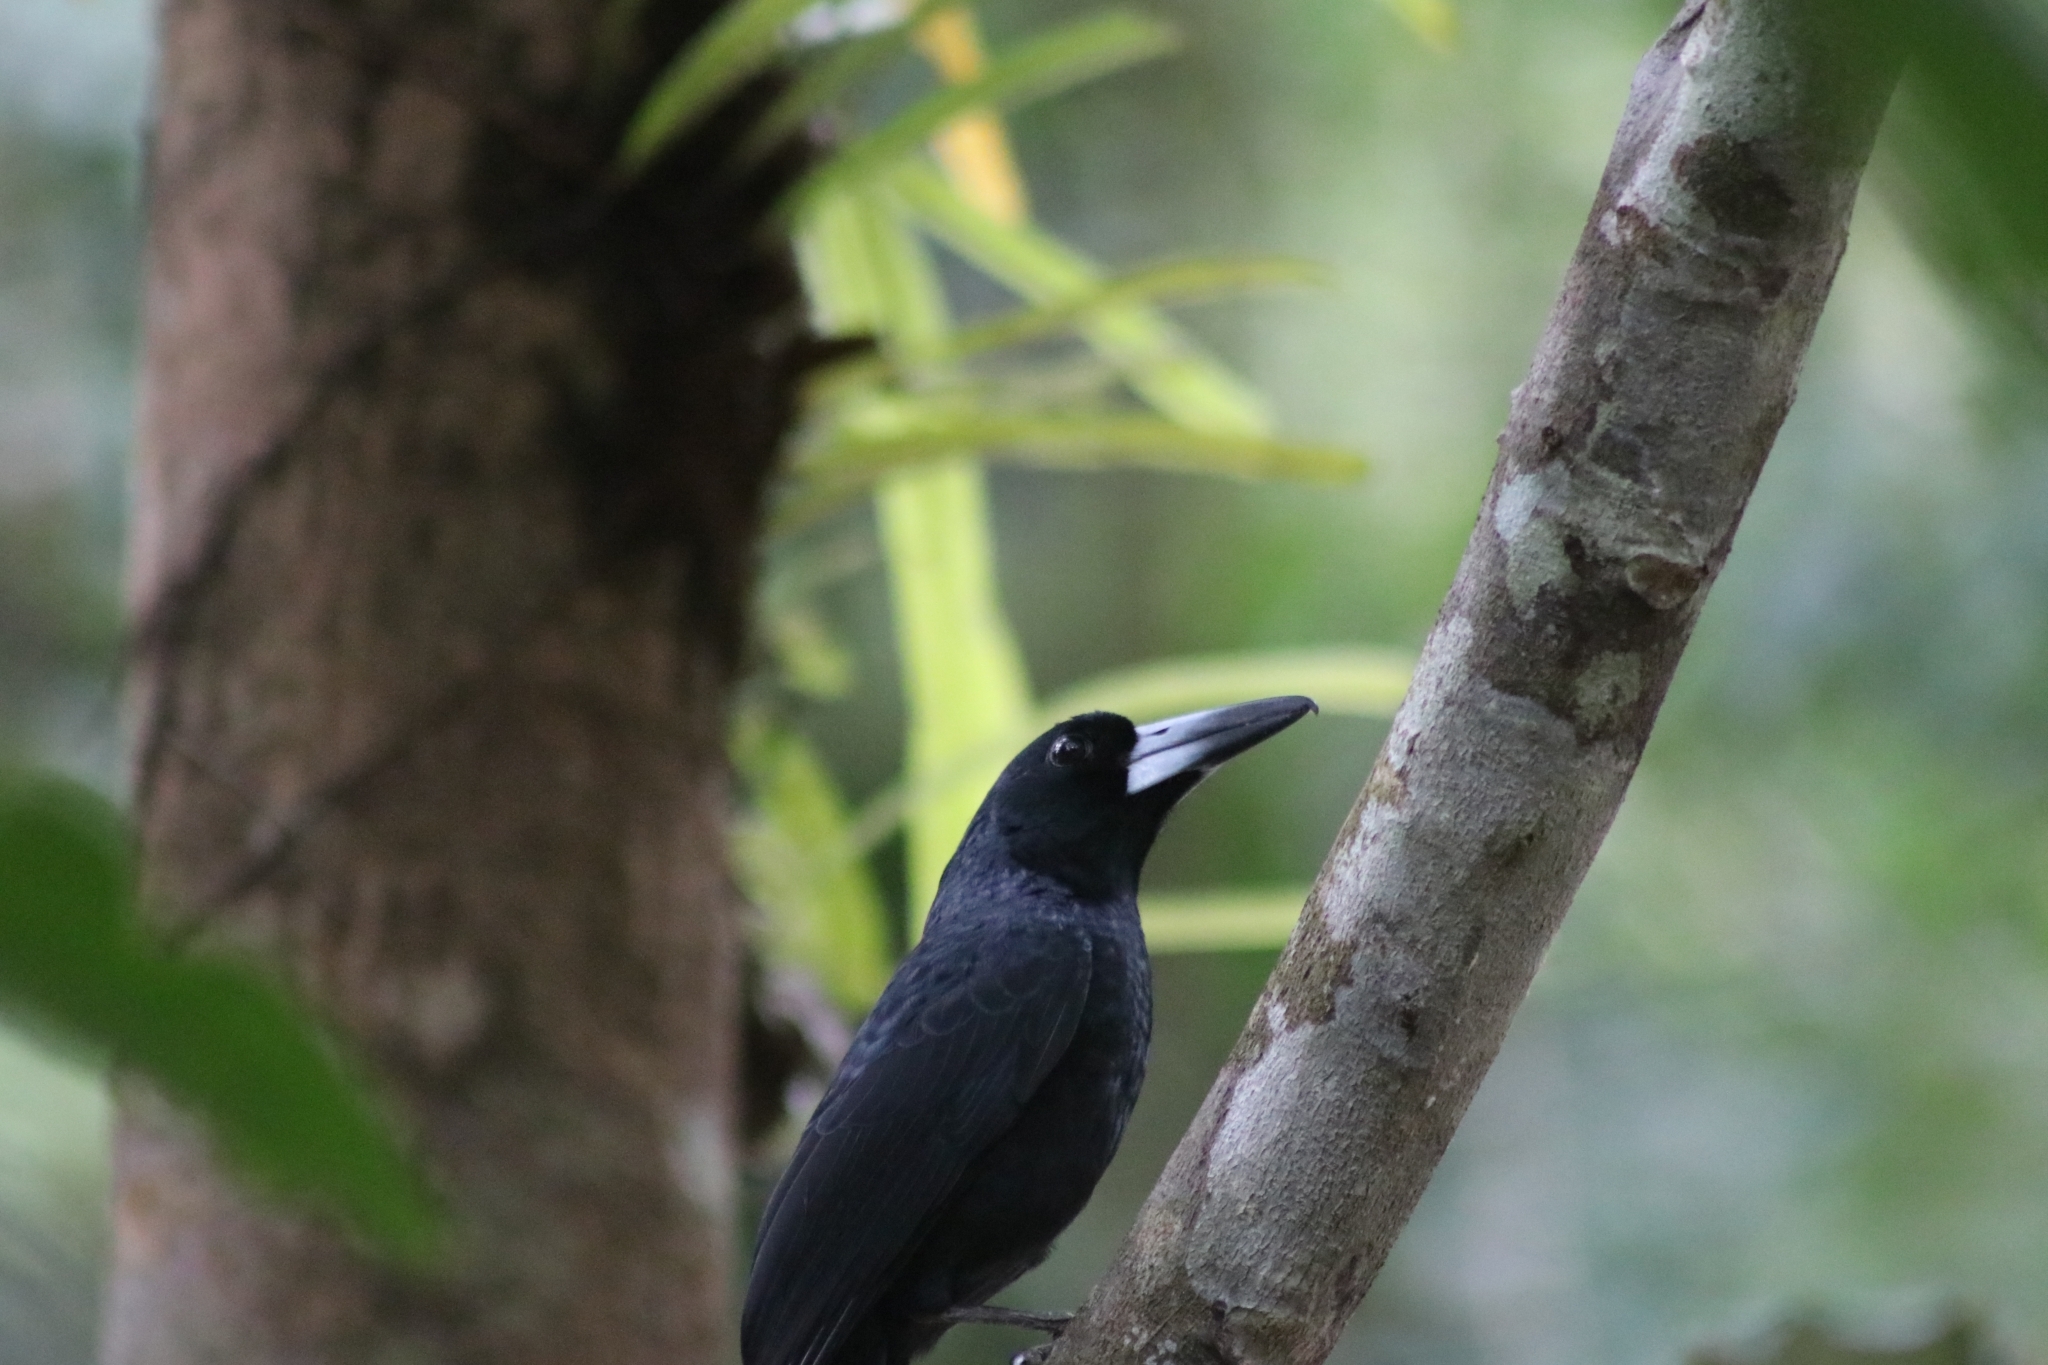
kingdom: Animalia
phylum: Chordata
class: Aves
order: Passeriformes
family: Artamidae
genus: Melloria
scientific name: Melloria quoyi
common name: Black butcherbird
